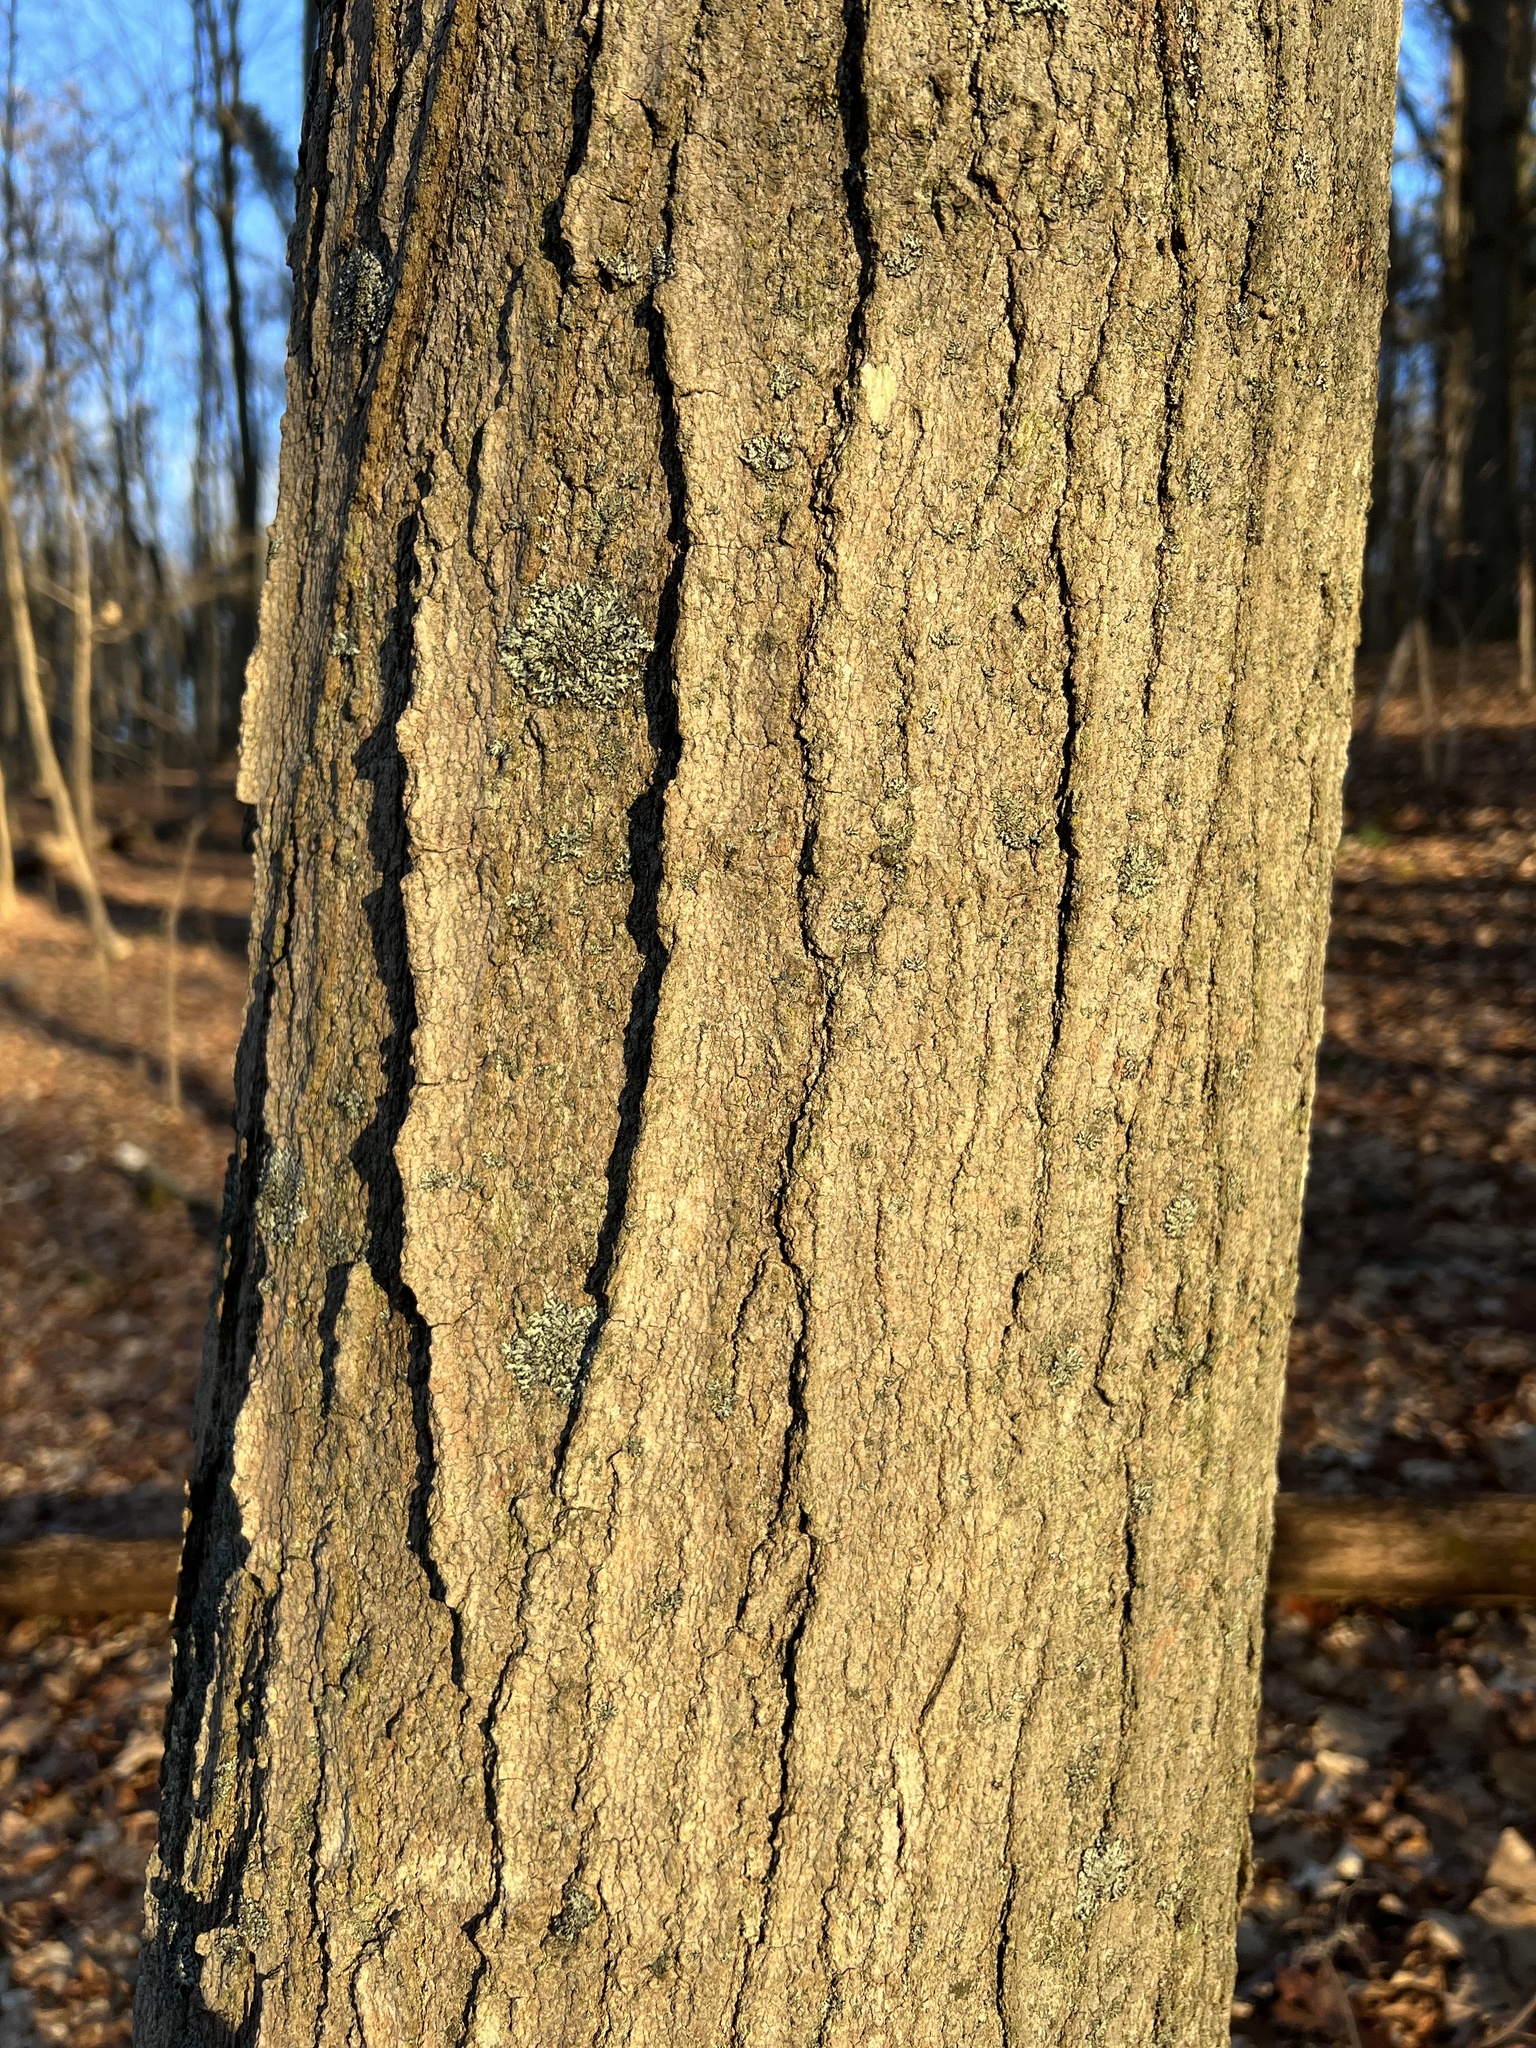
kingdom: Plantae
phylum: Tracheophyta
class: Magnoliopsida
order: Sapindales
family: Sapindaceae
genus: Acer
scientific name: Acer saccharum
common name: Sugar maple
